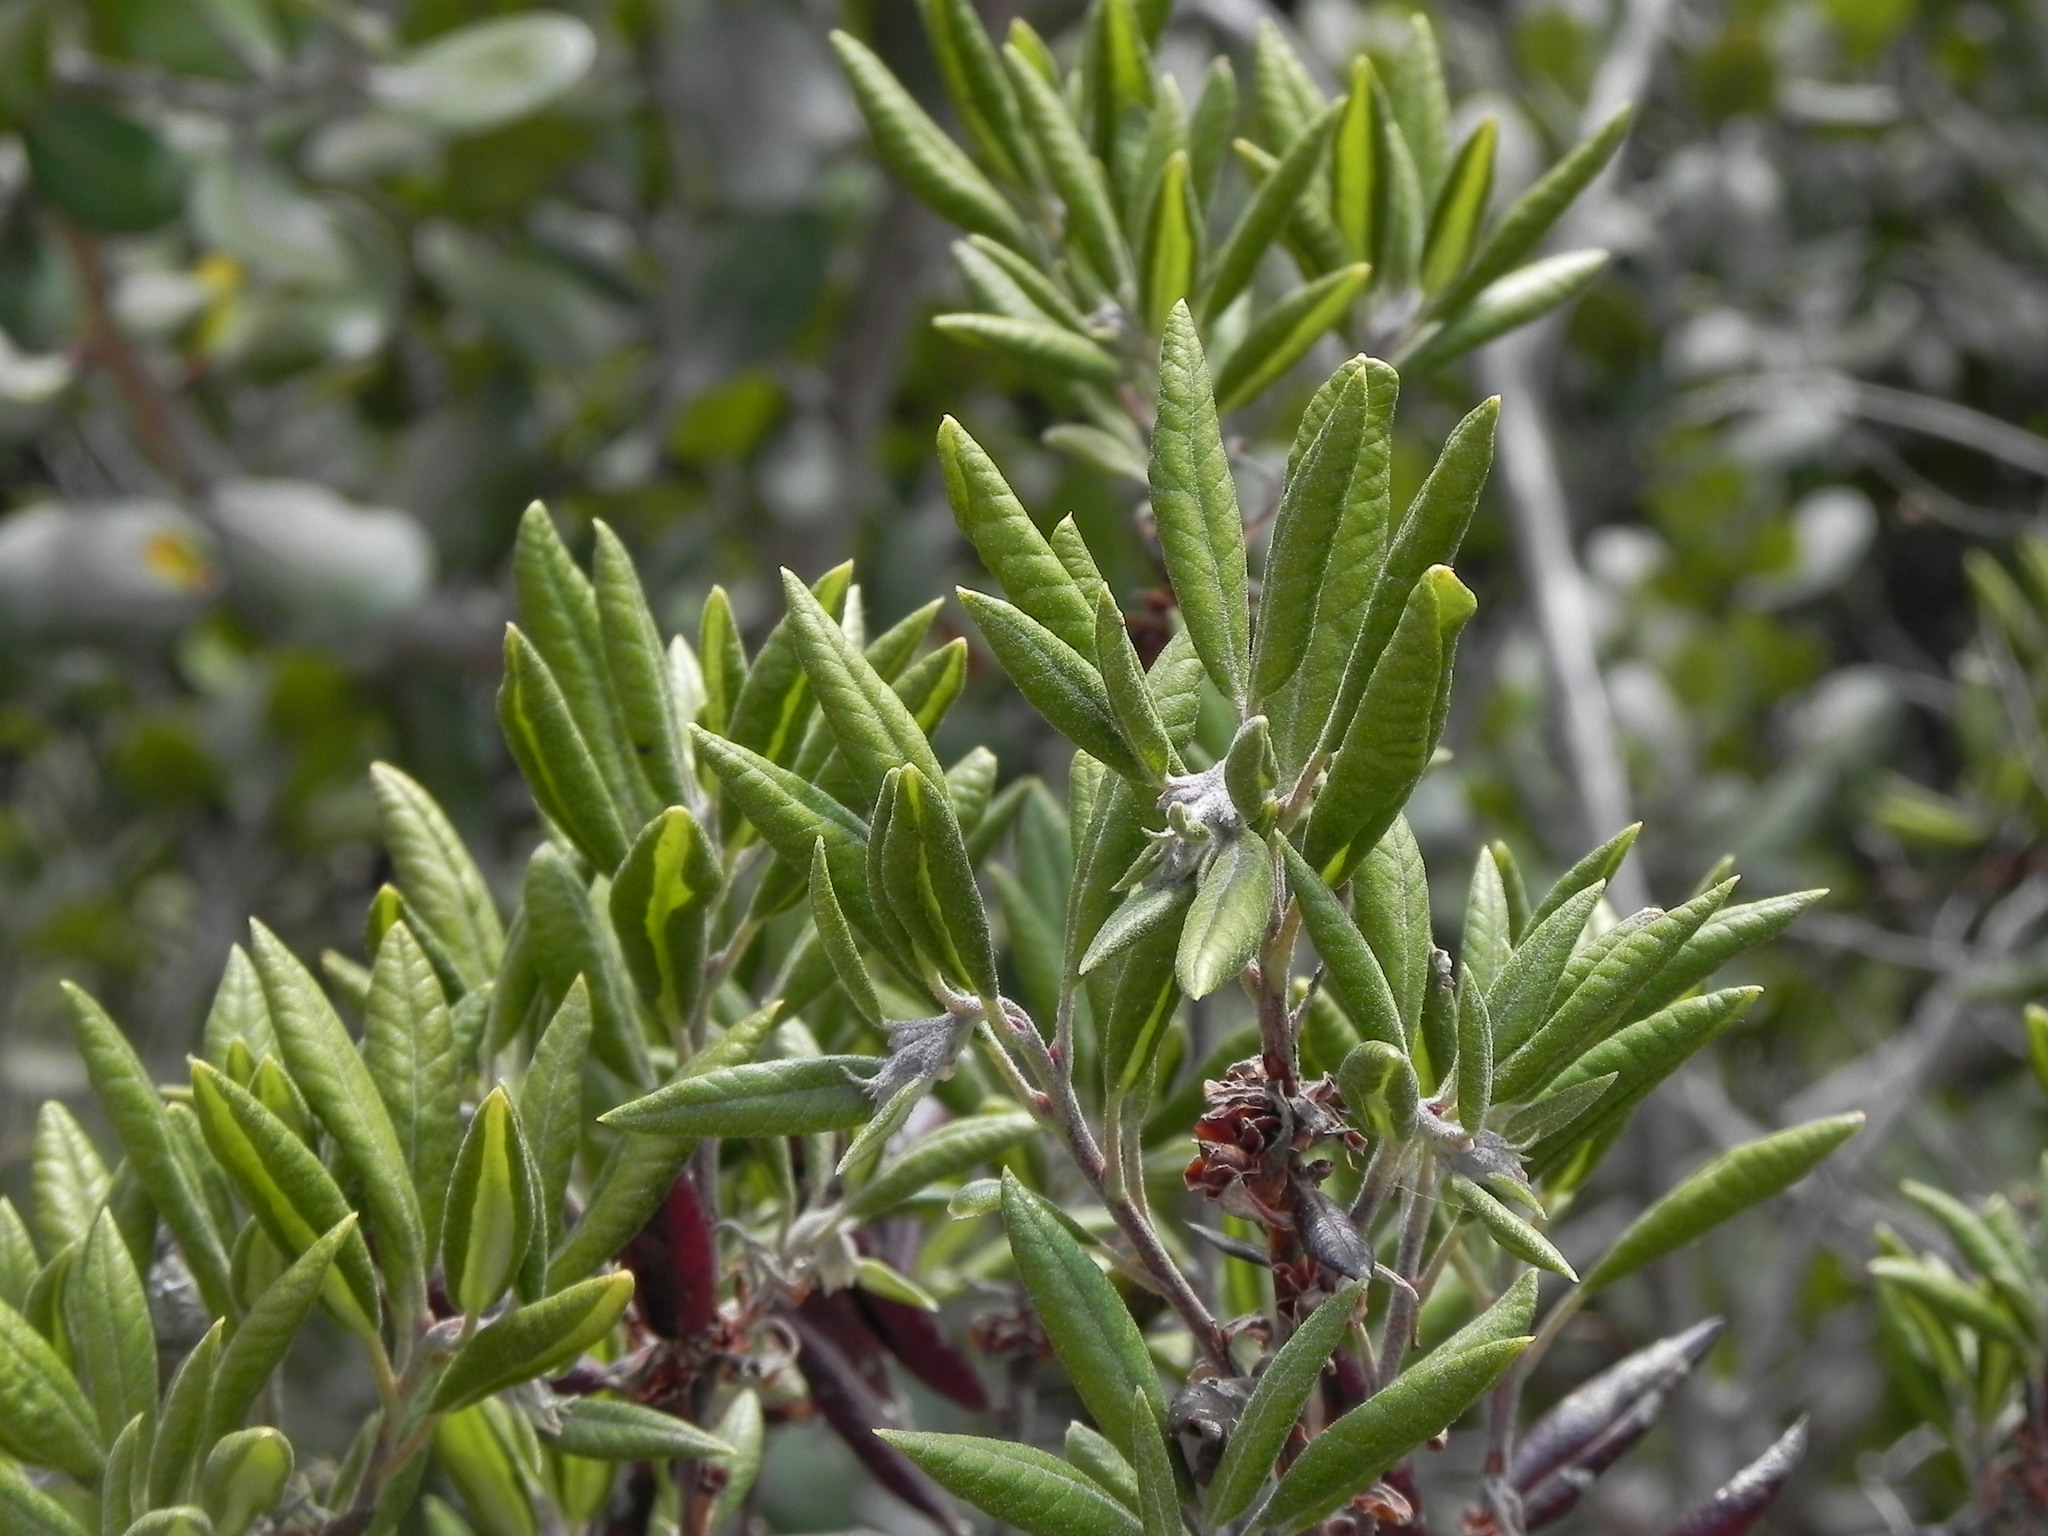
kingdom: Plantae
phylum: Tracheophyta
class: Magnoliopsida
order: Ericales
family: Ericaceae
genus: Arctostaphylos
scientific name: Arctostaphylos bicolor
